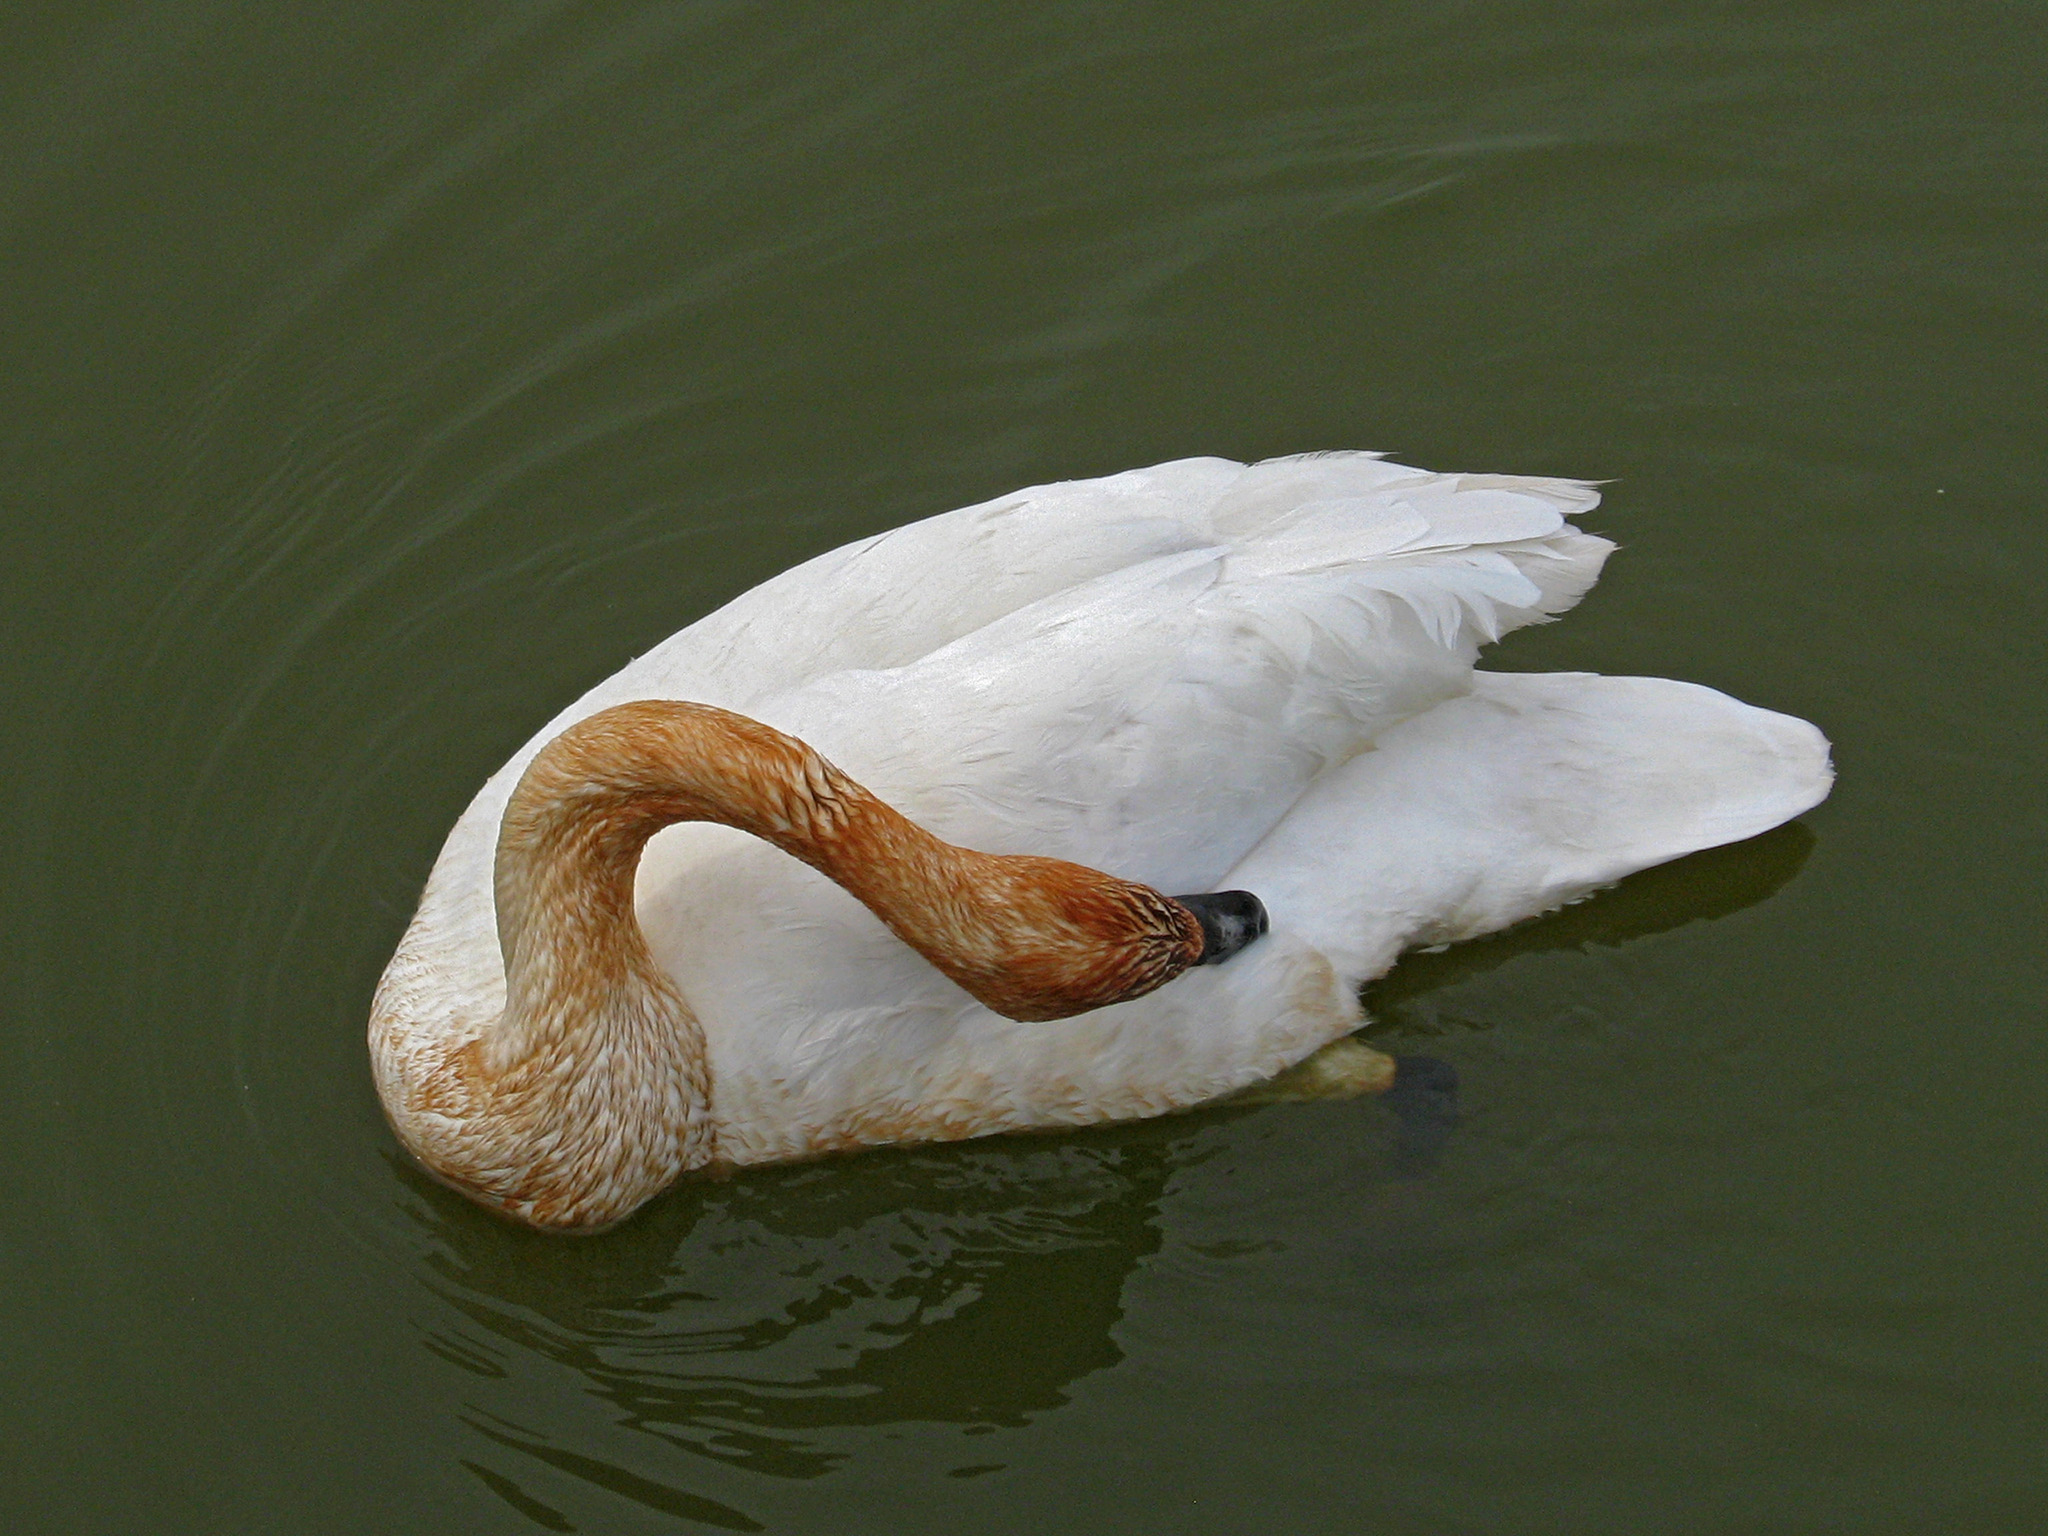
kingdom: Animalia
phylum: Chordata
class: Aves
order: Anseriformes
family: Anatidae
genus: Cygnus
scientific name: Cygnus buccinator
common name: Trumpeter swan
